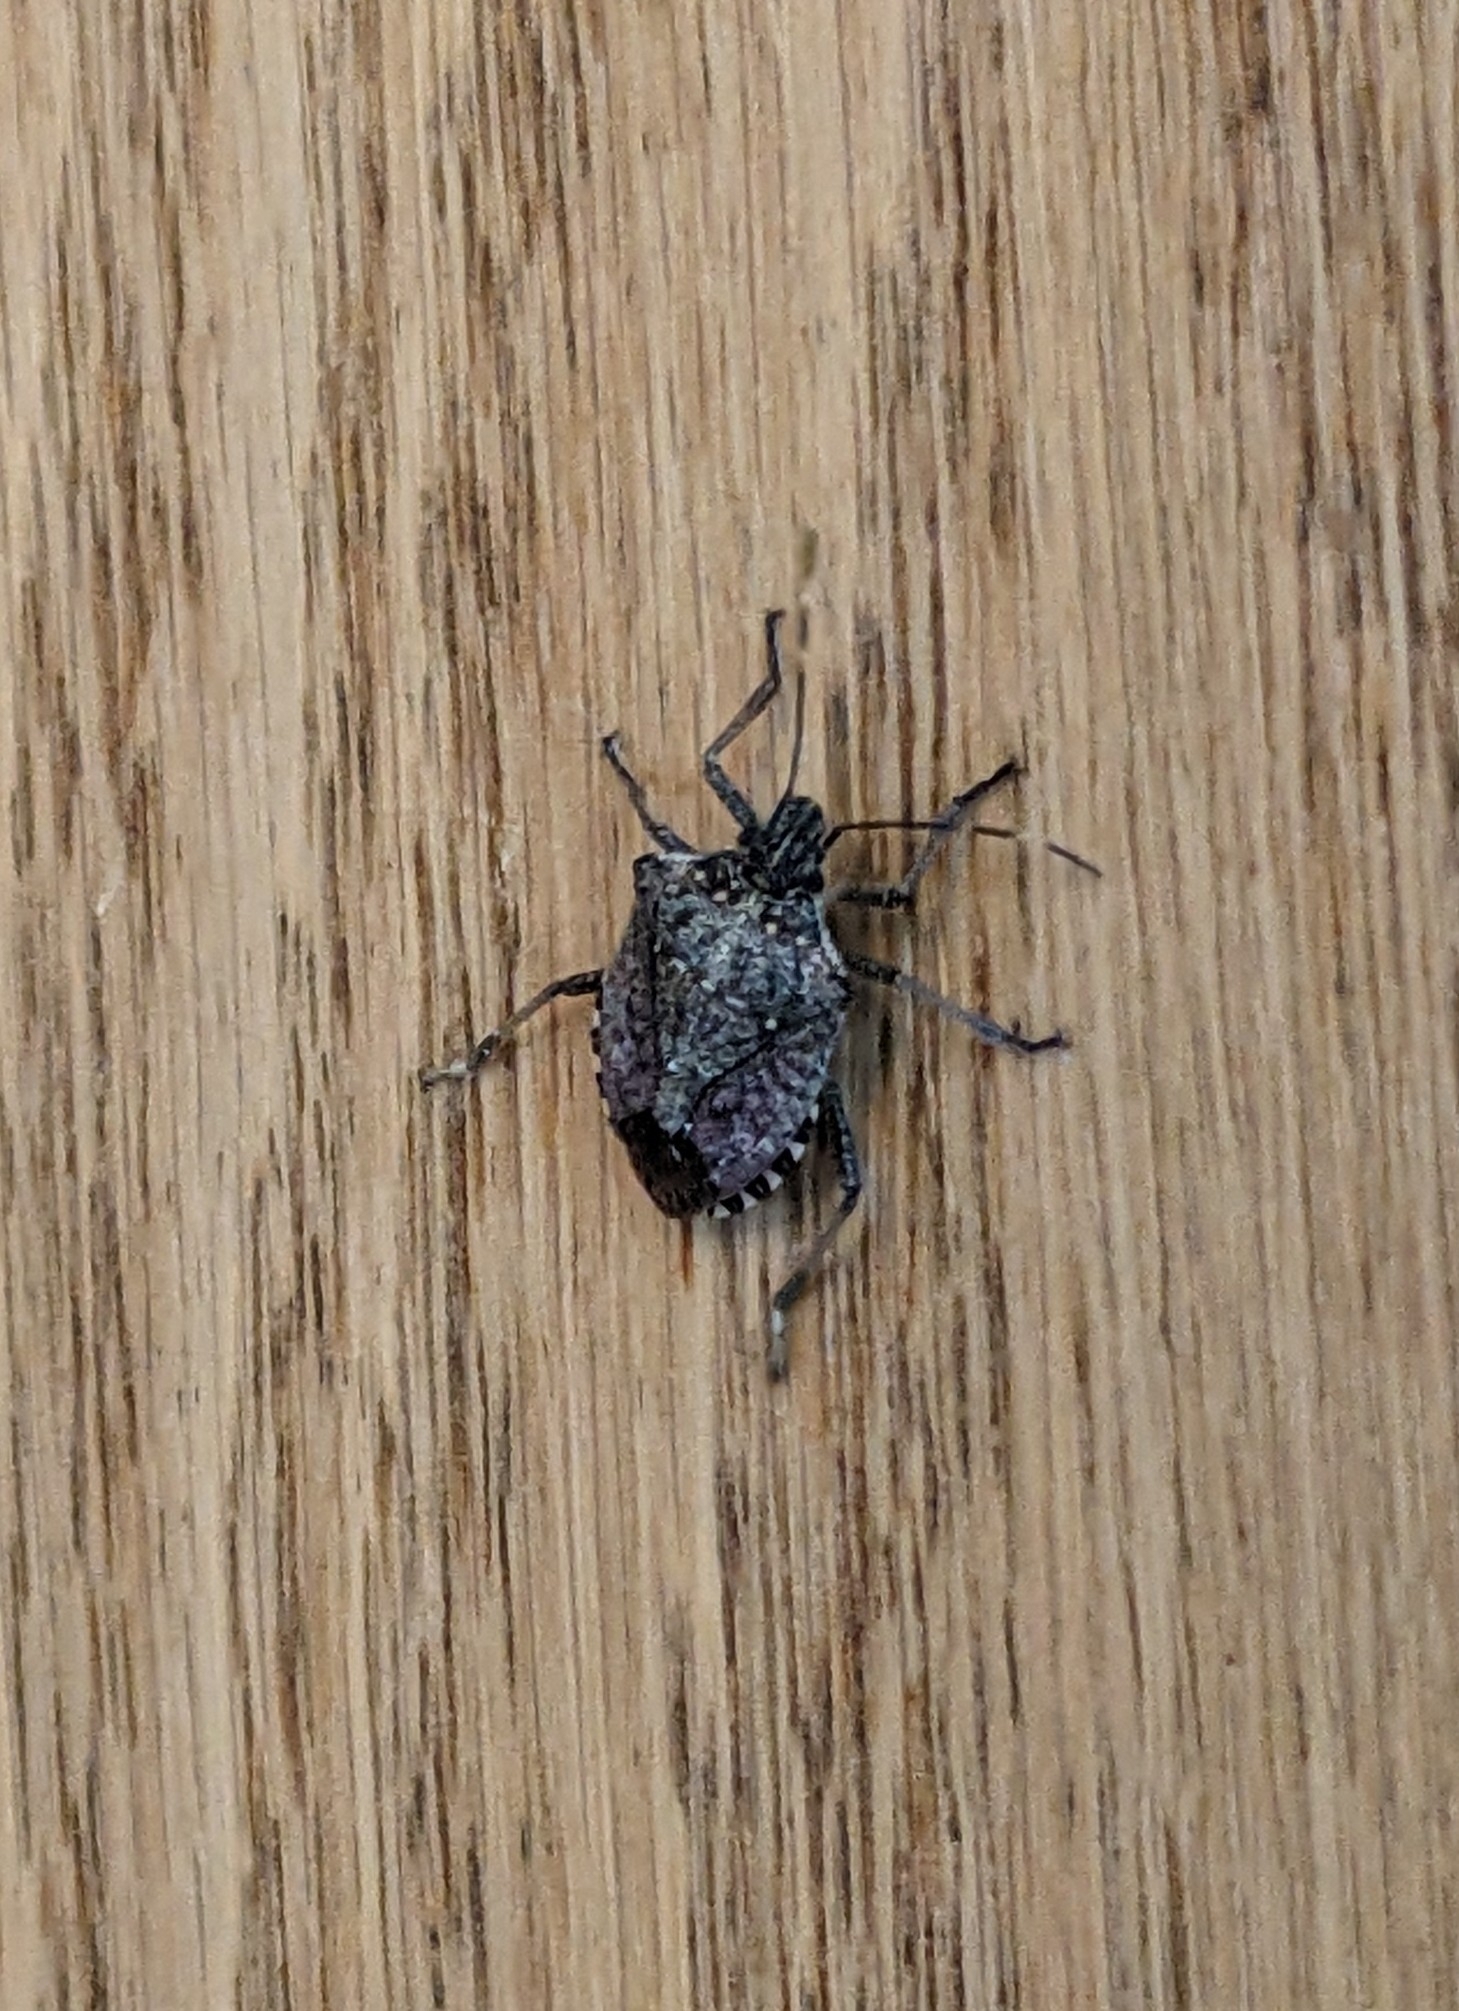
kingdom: Animalia
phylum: Arthropoda
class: Insecta
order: Hemiptera
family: Pentatomidae
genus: Halyomorpha
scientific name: Halyomorpha halys
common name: Brown marmorated stink bug
